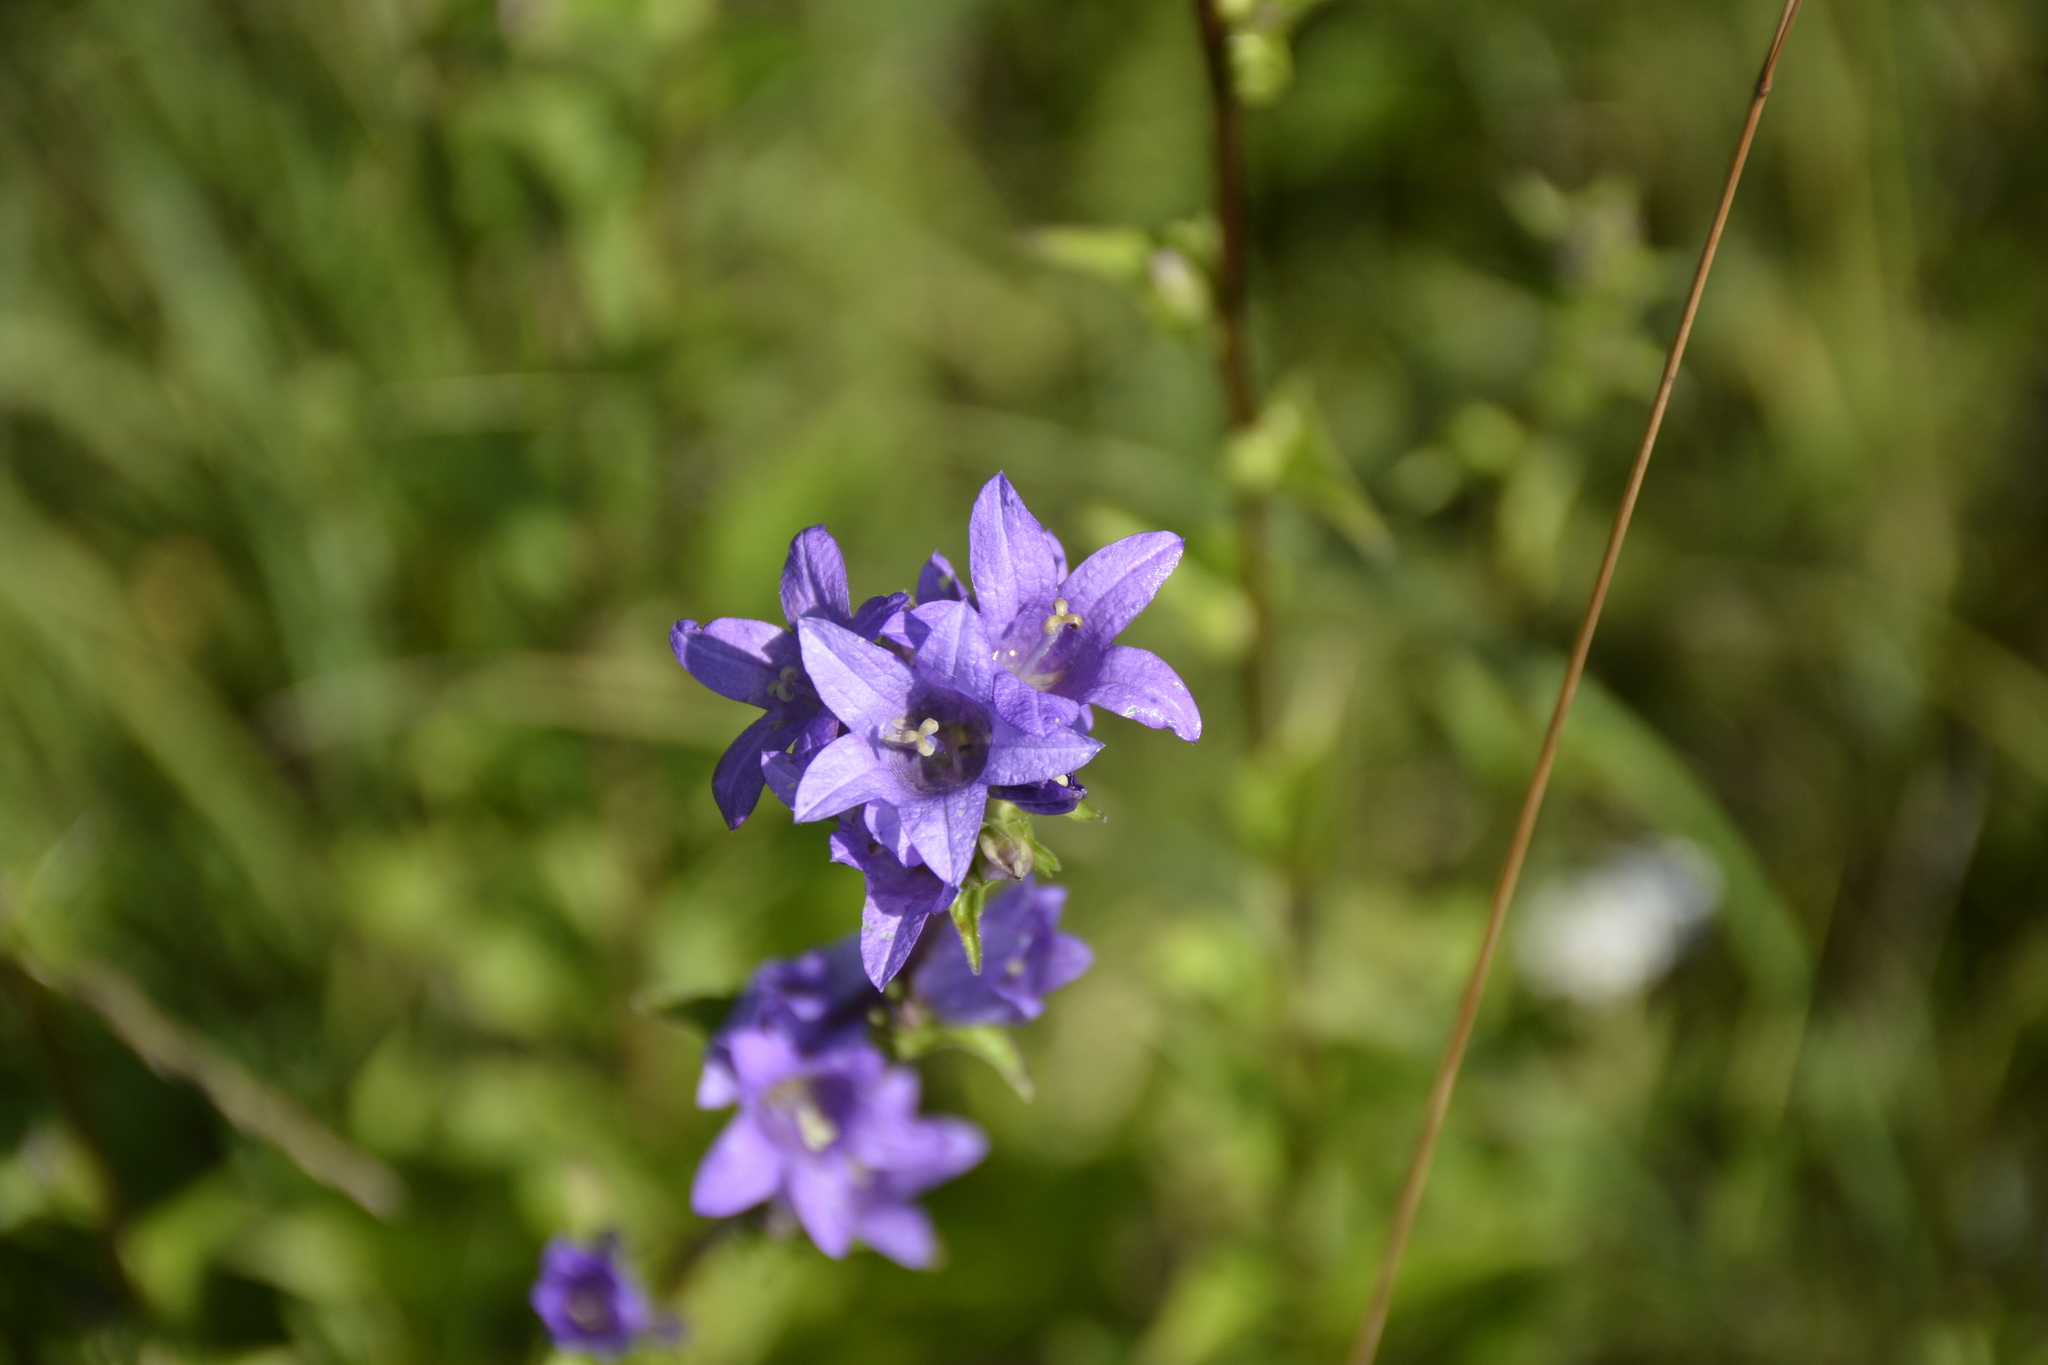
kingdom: Plantae
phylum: Tracheophyta
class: Magnoliopsida
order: Asterales
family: Campanulaceae
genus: Campanula
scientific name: Campanula glomerata
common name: Clustered bellflower
